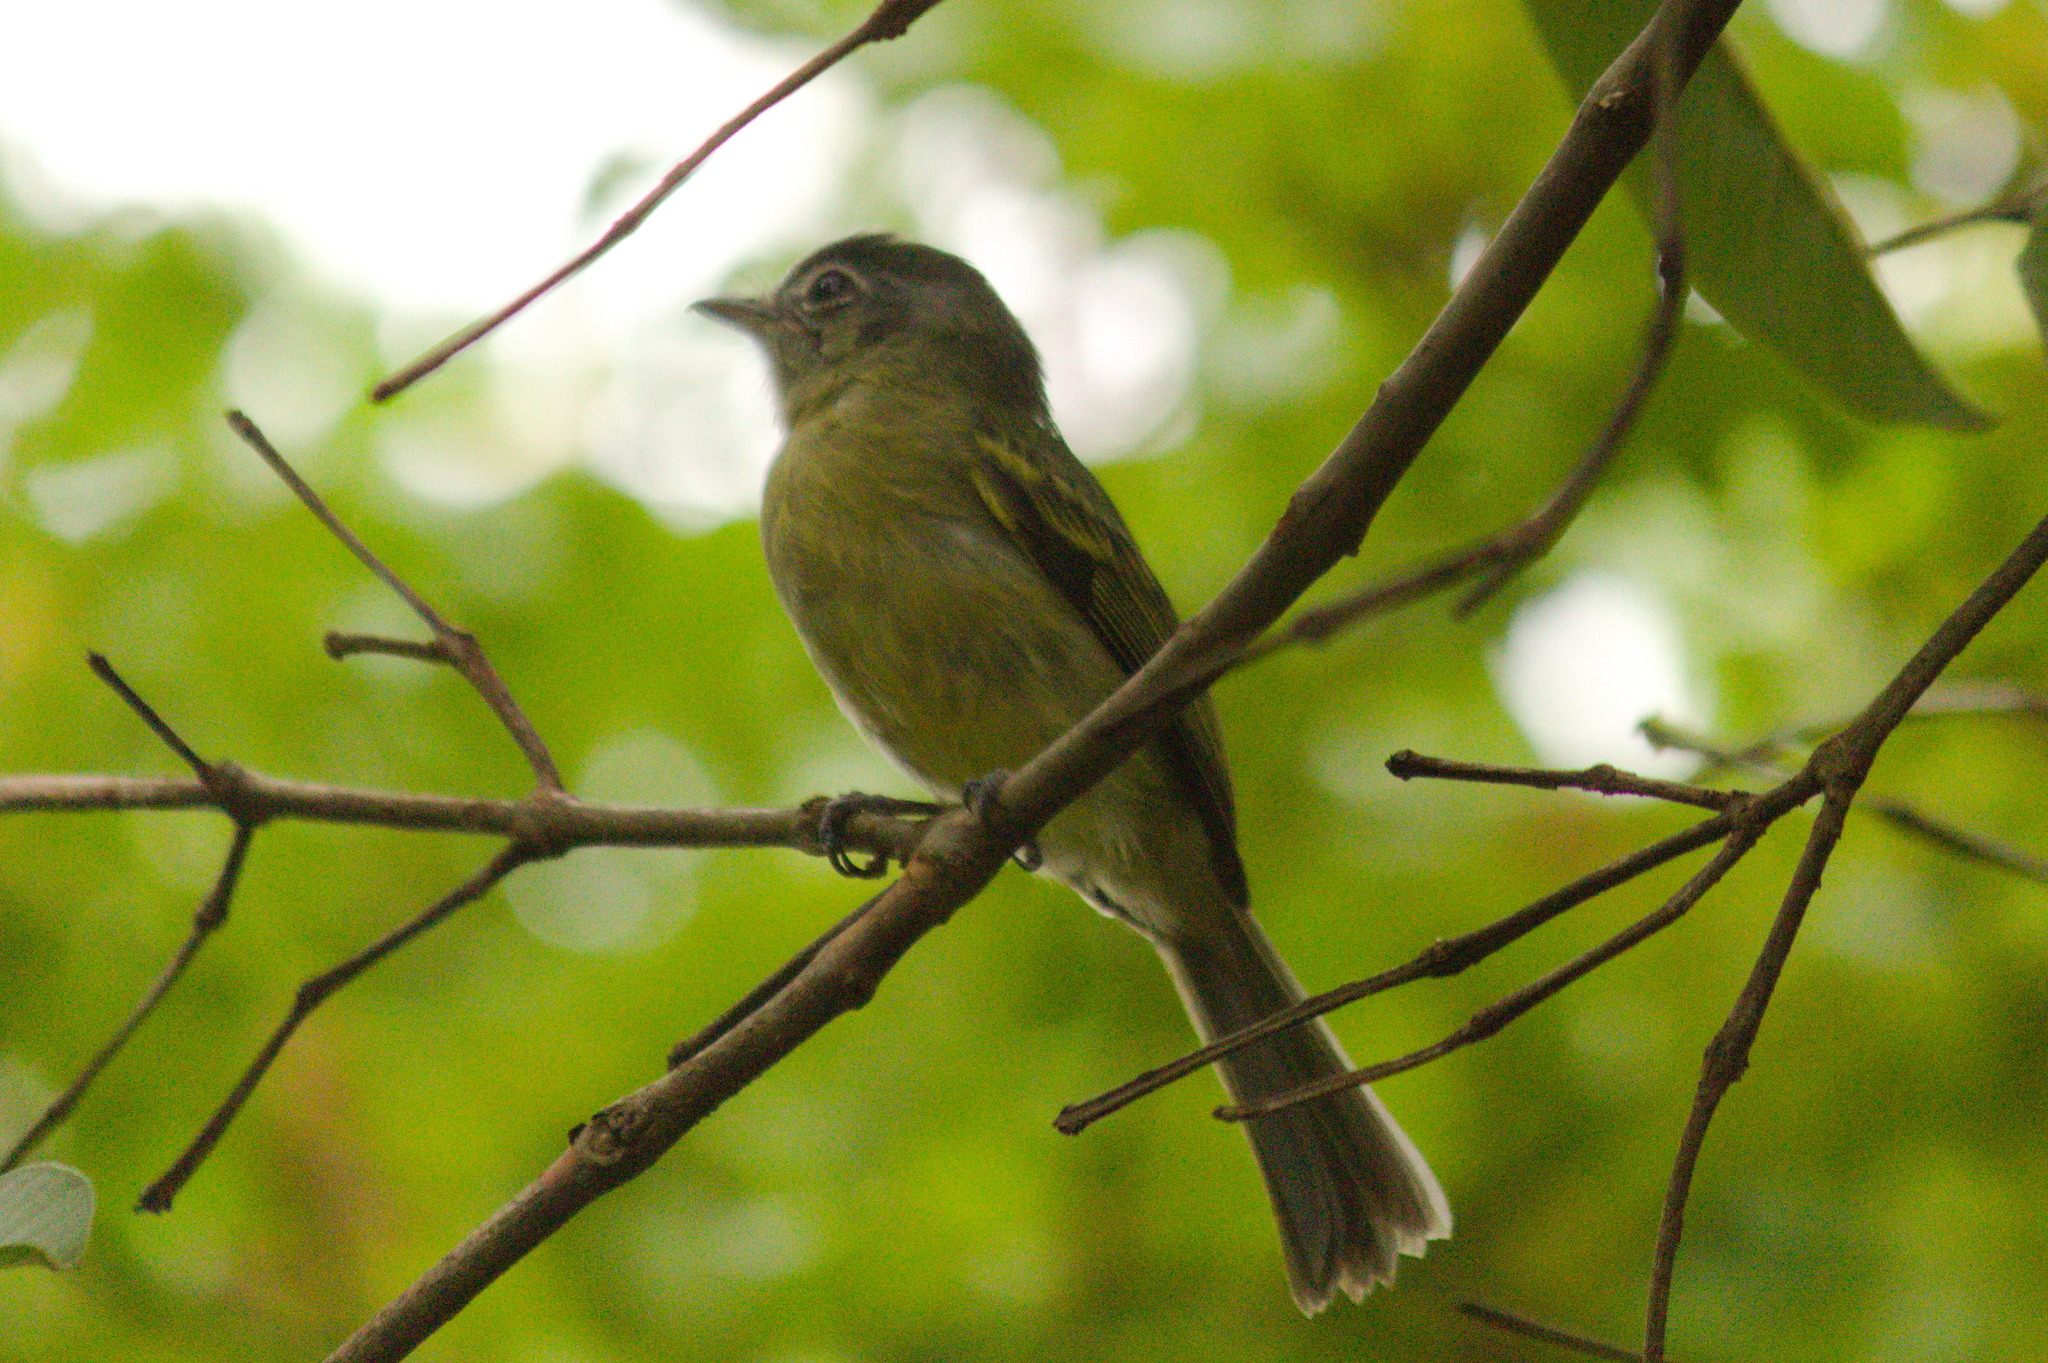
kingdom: Animalia
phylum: Chordata
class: Aves
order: Passeriformes
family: Tyrannidae
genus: Tolmomyias
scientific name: Tolmomyias sulphurescens
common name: Yellow-olive flycatcher
